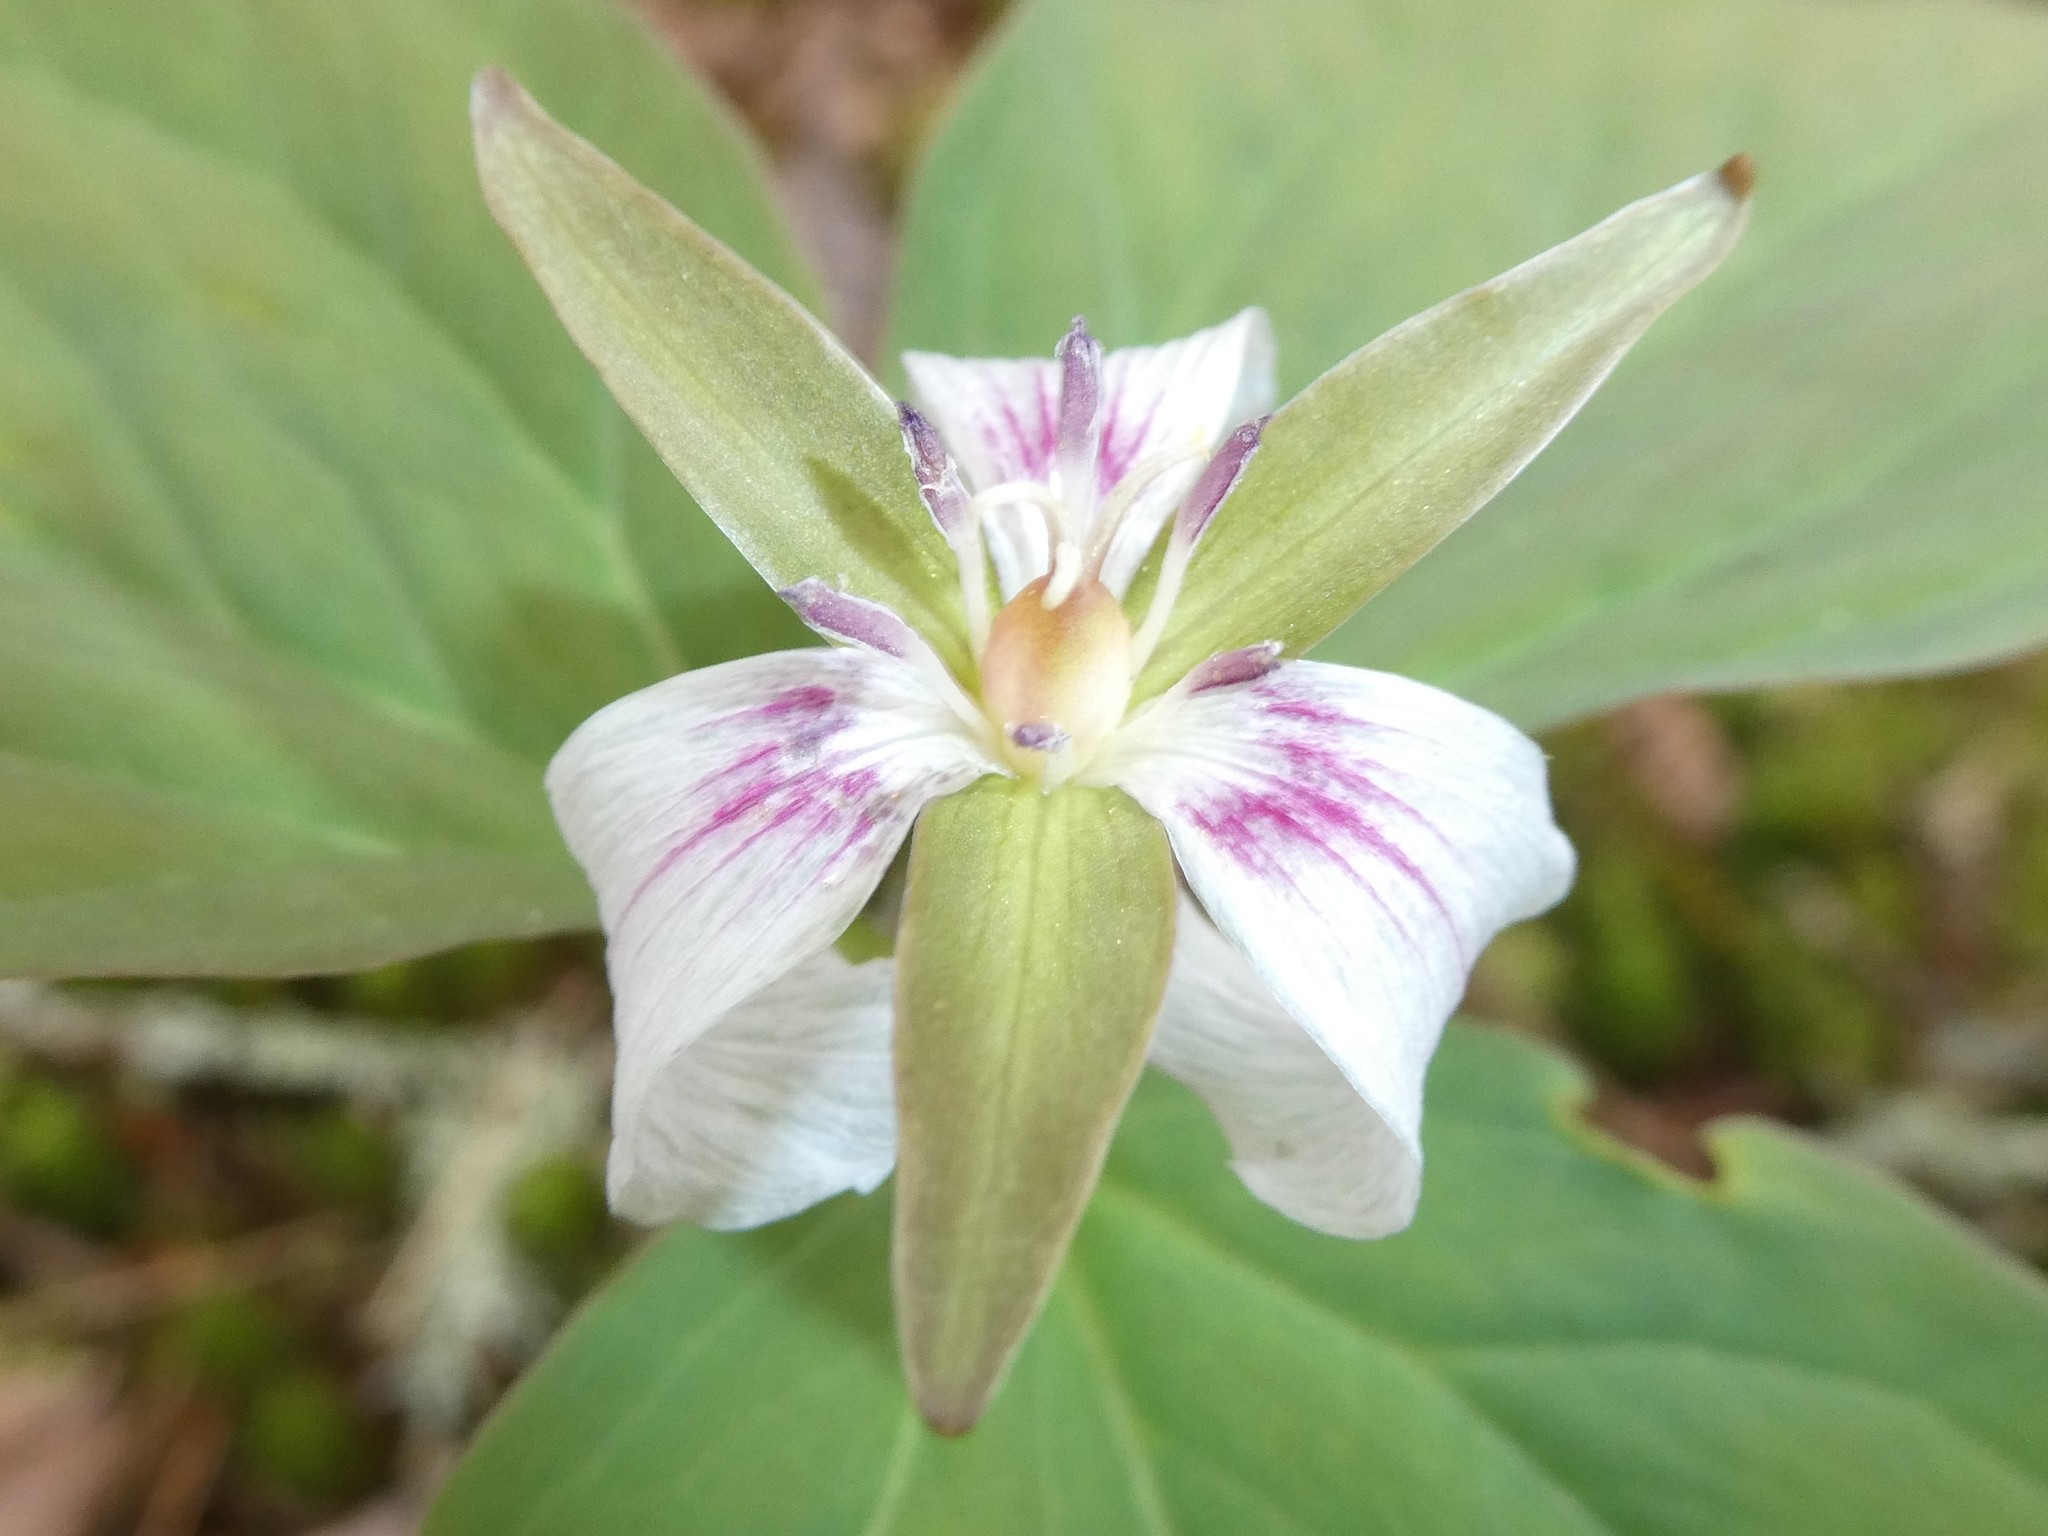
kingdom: Plantae
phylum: Tracheophyta
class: Liliopsida
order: Liliales
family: Melanthiaceae
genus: Trillium
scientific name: Trillium undulatum
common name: Paint trillium
